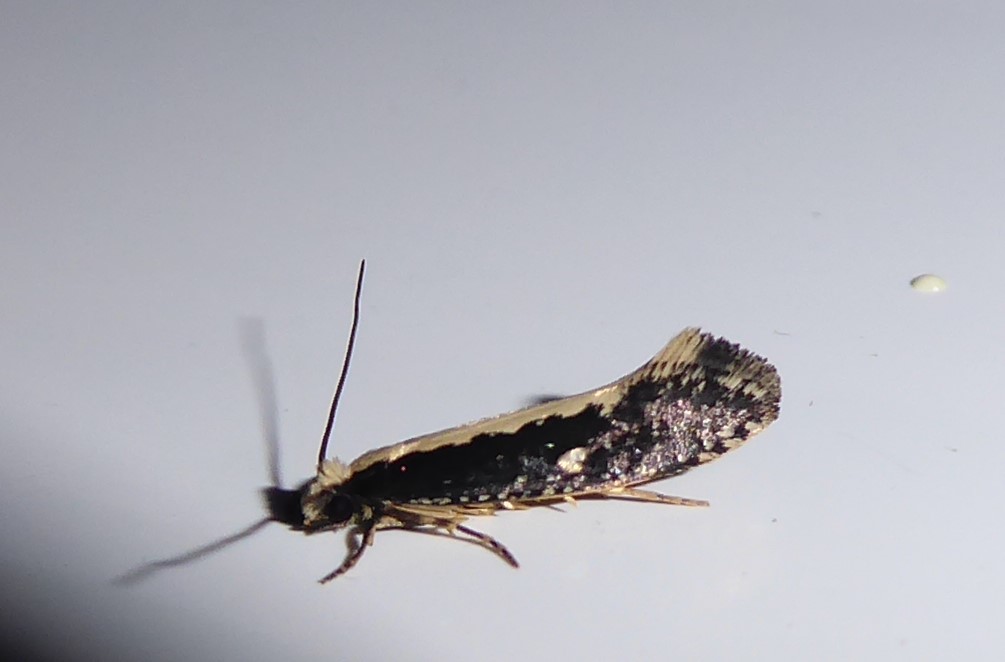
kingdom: Animalia
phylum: Arthropoda
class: Insecta
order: Lepidoptera
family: Tineidae
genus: Monopis
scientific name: Monopis ethelella
